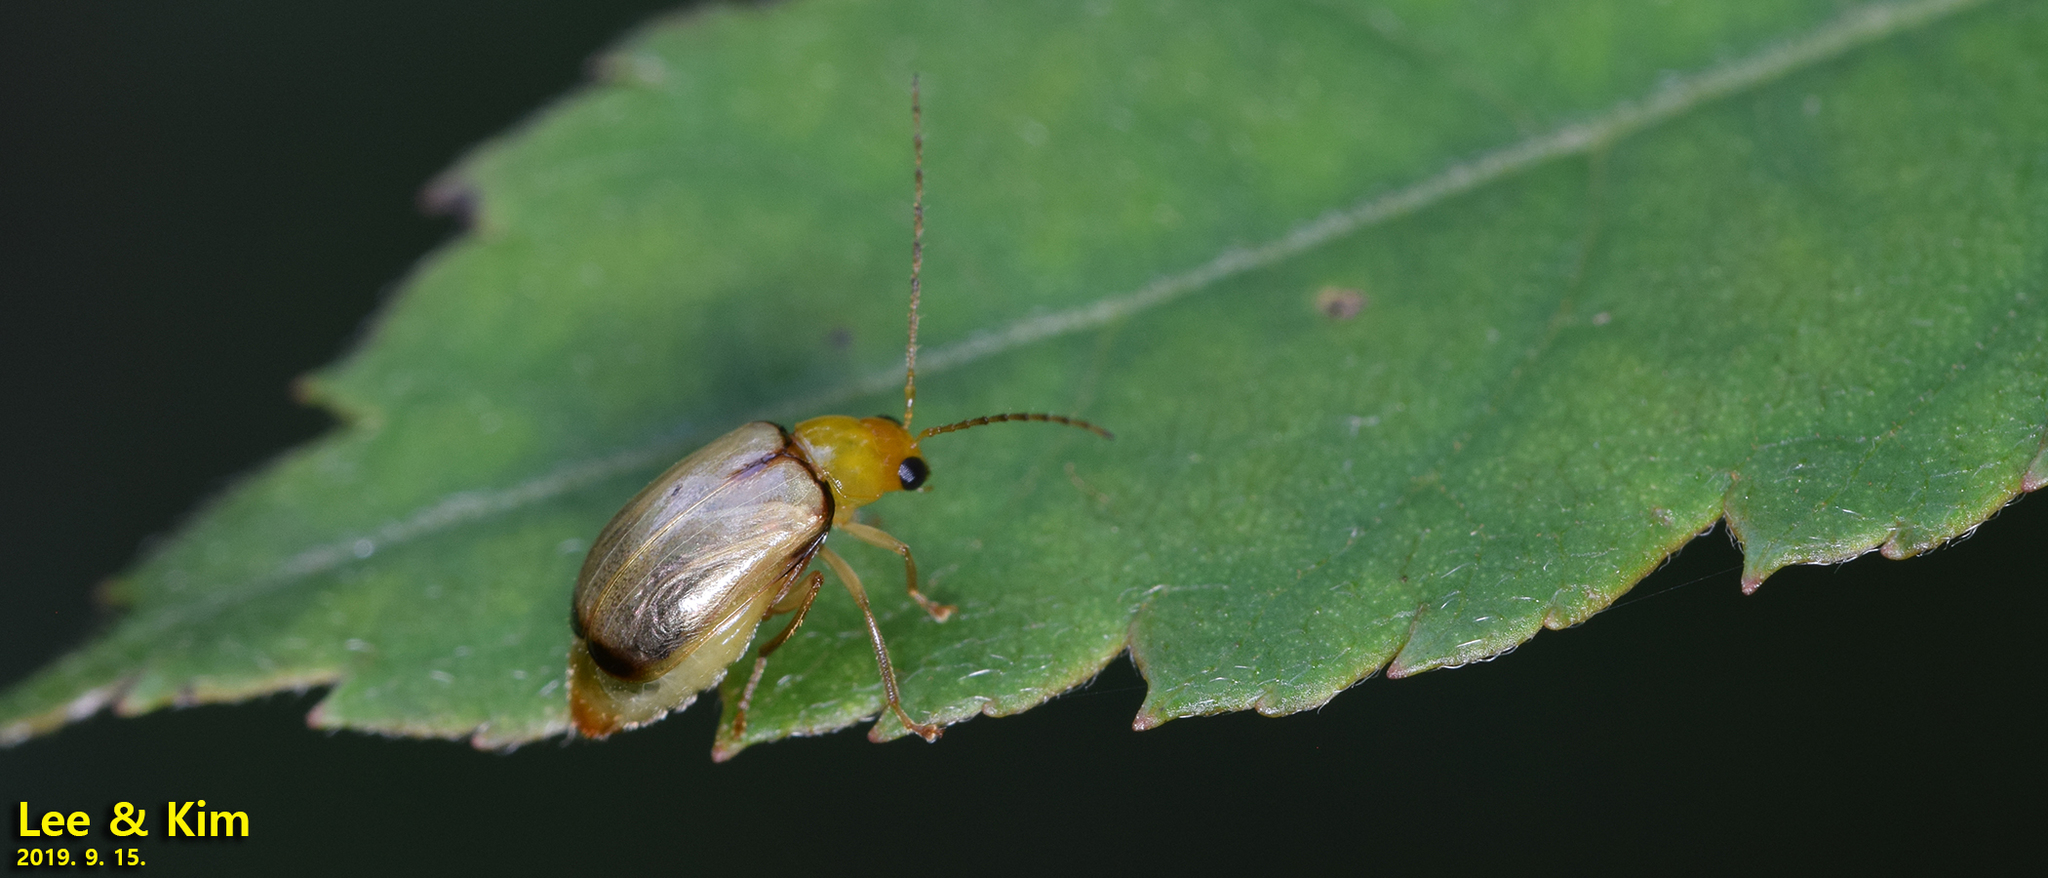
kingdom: Animalia
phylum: Arthropoda
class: Insecta
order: Coleoptera
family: Chrysomelidae
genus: Monolepta
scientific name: Monolepta shirozui
